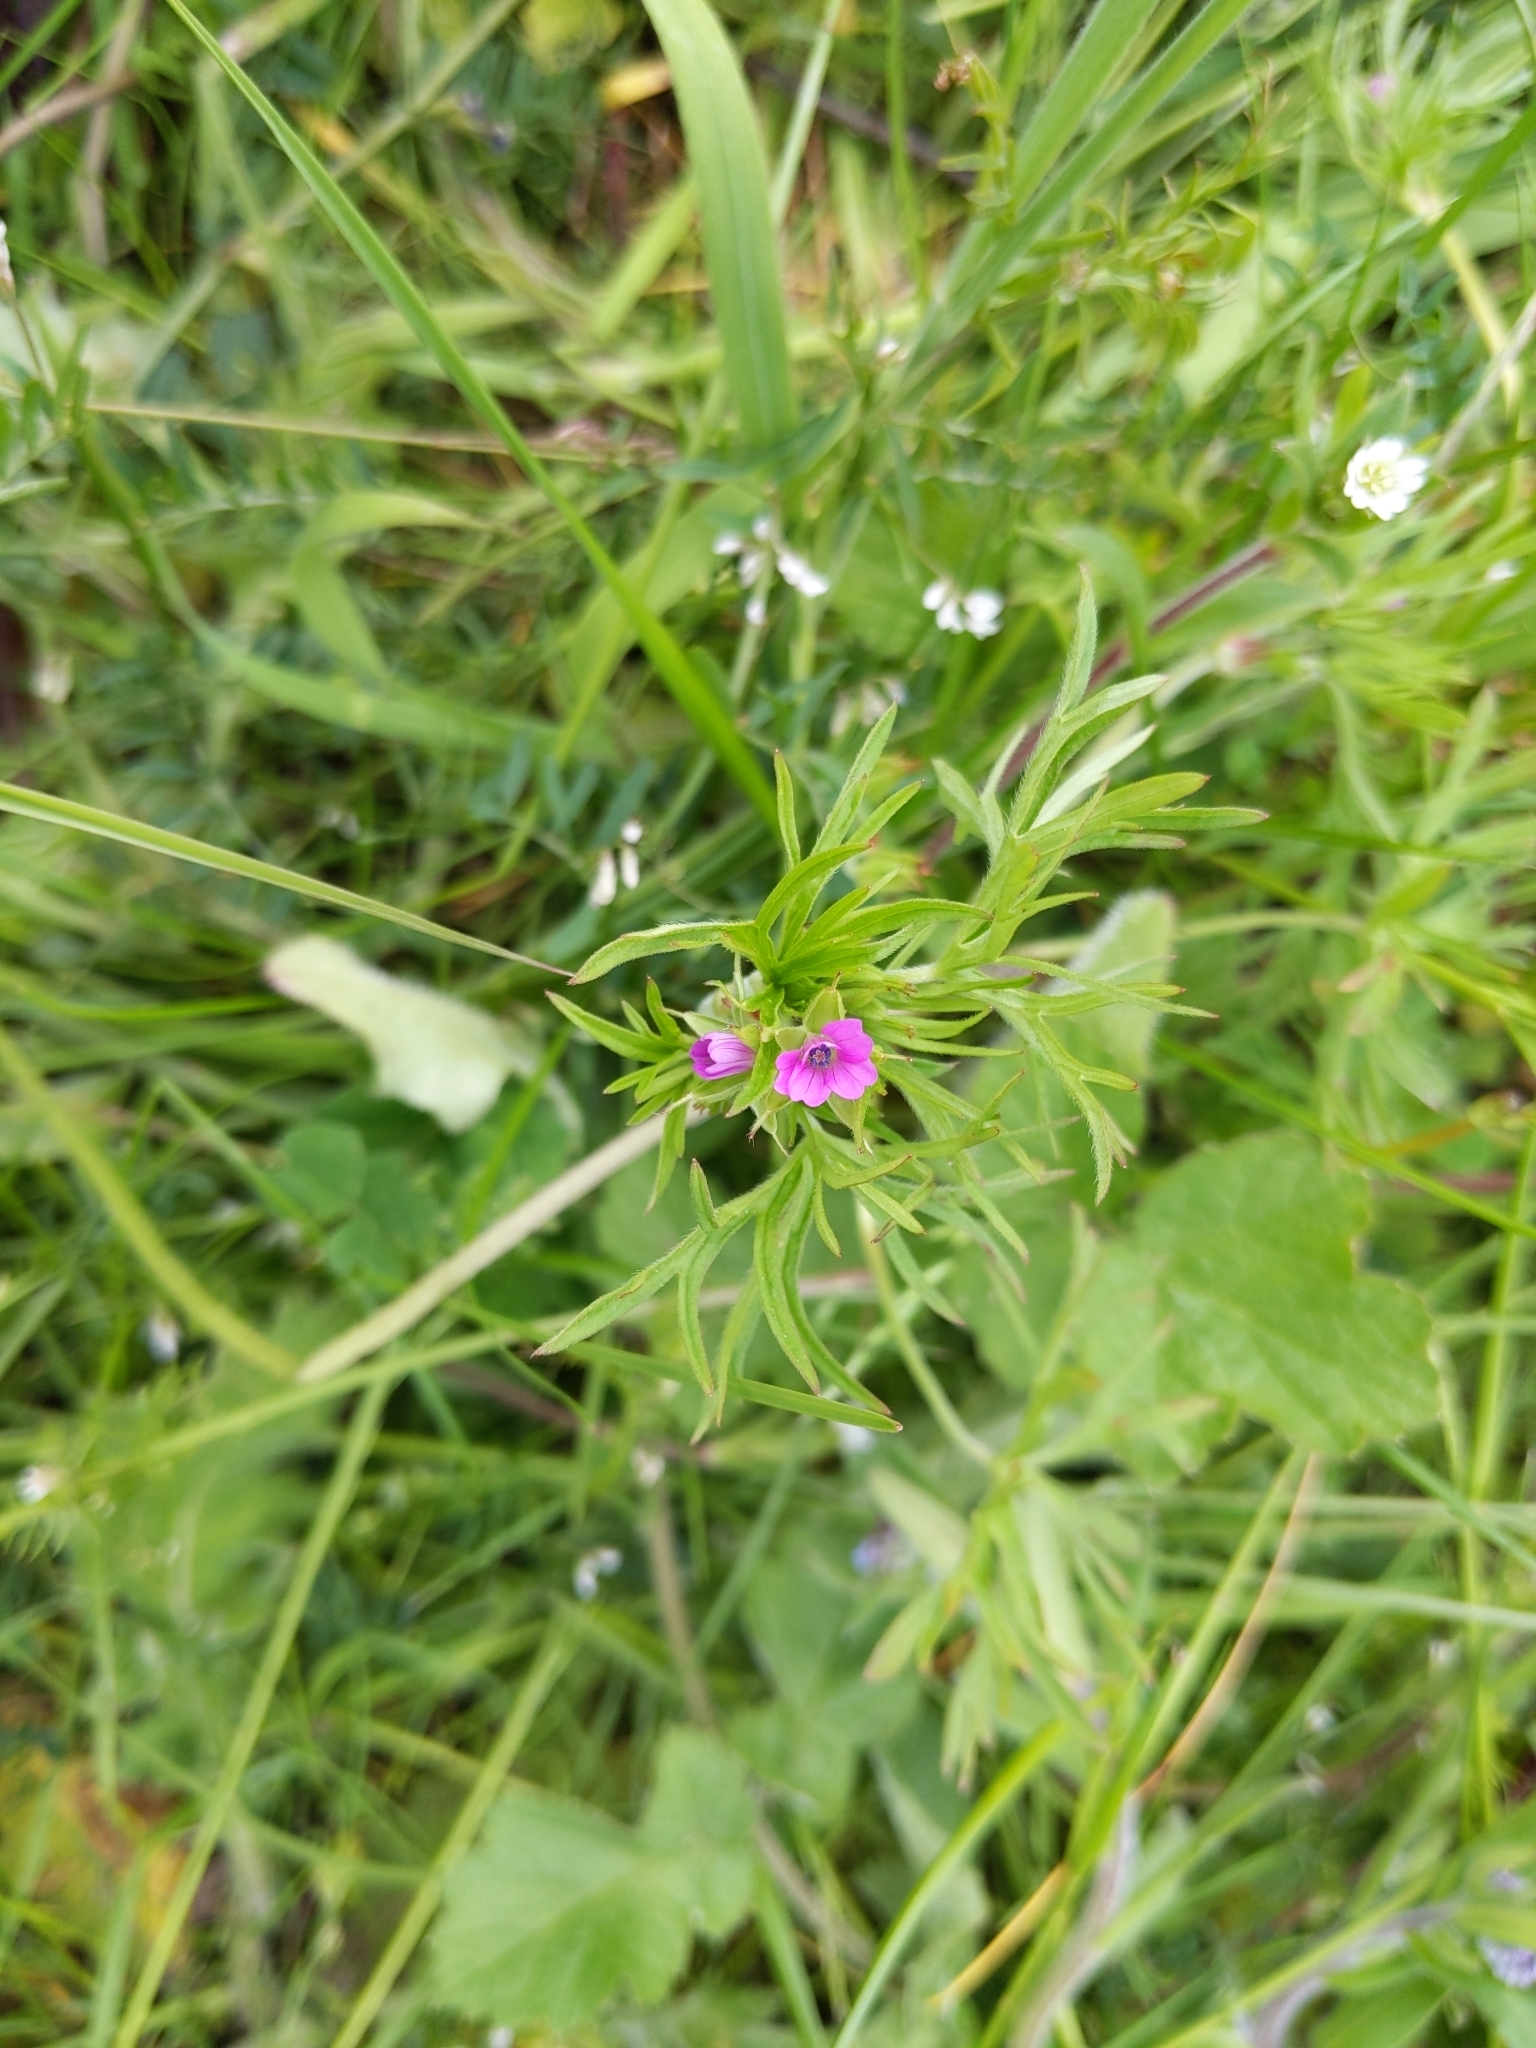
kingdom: Plantae
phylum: Tracheophyta
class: Magnoliopsida
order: Geraniales
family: Geraniaceae
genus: Geranium
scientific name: Geranium dissectum
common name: Cut-leaved crane's-bill
